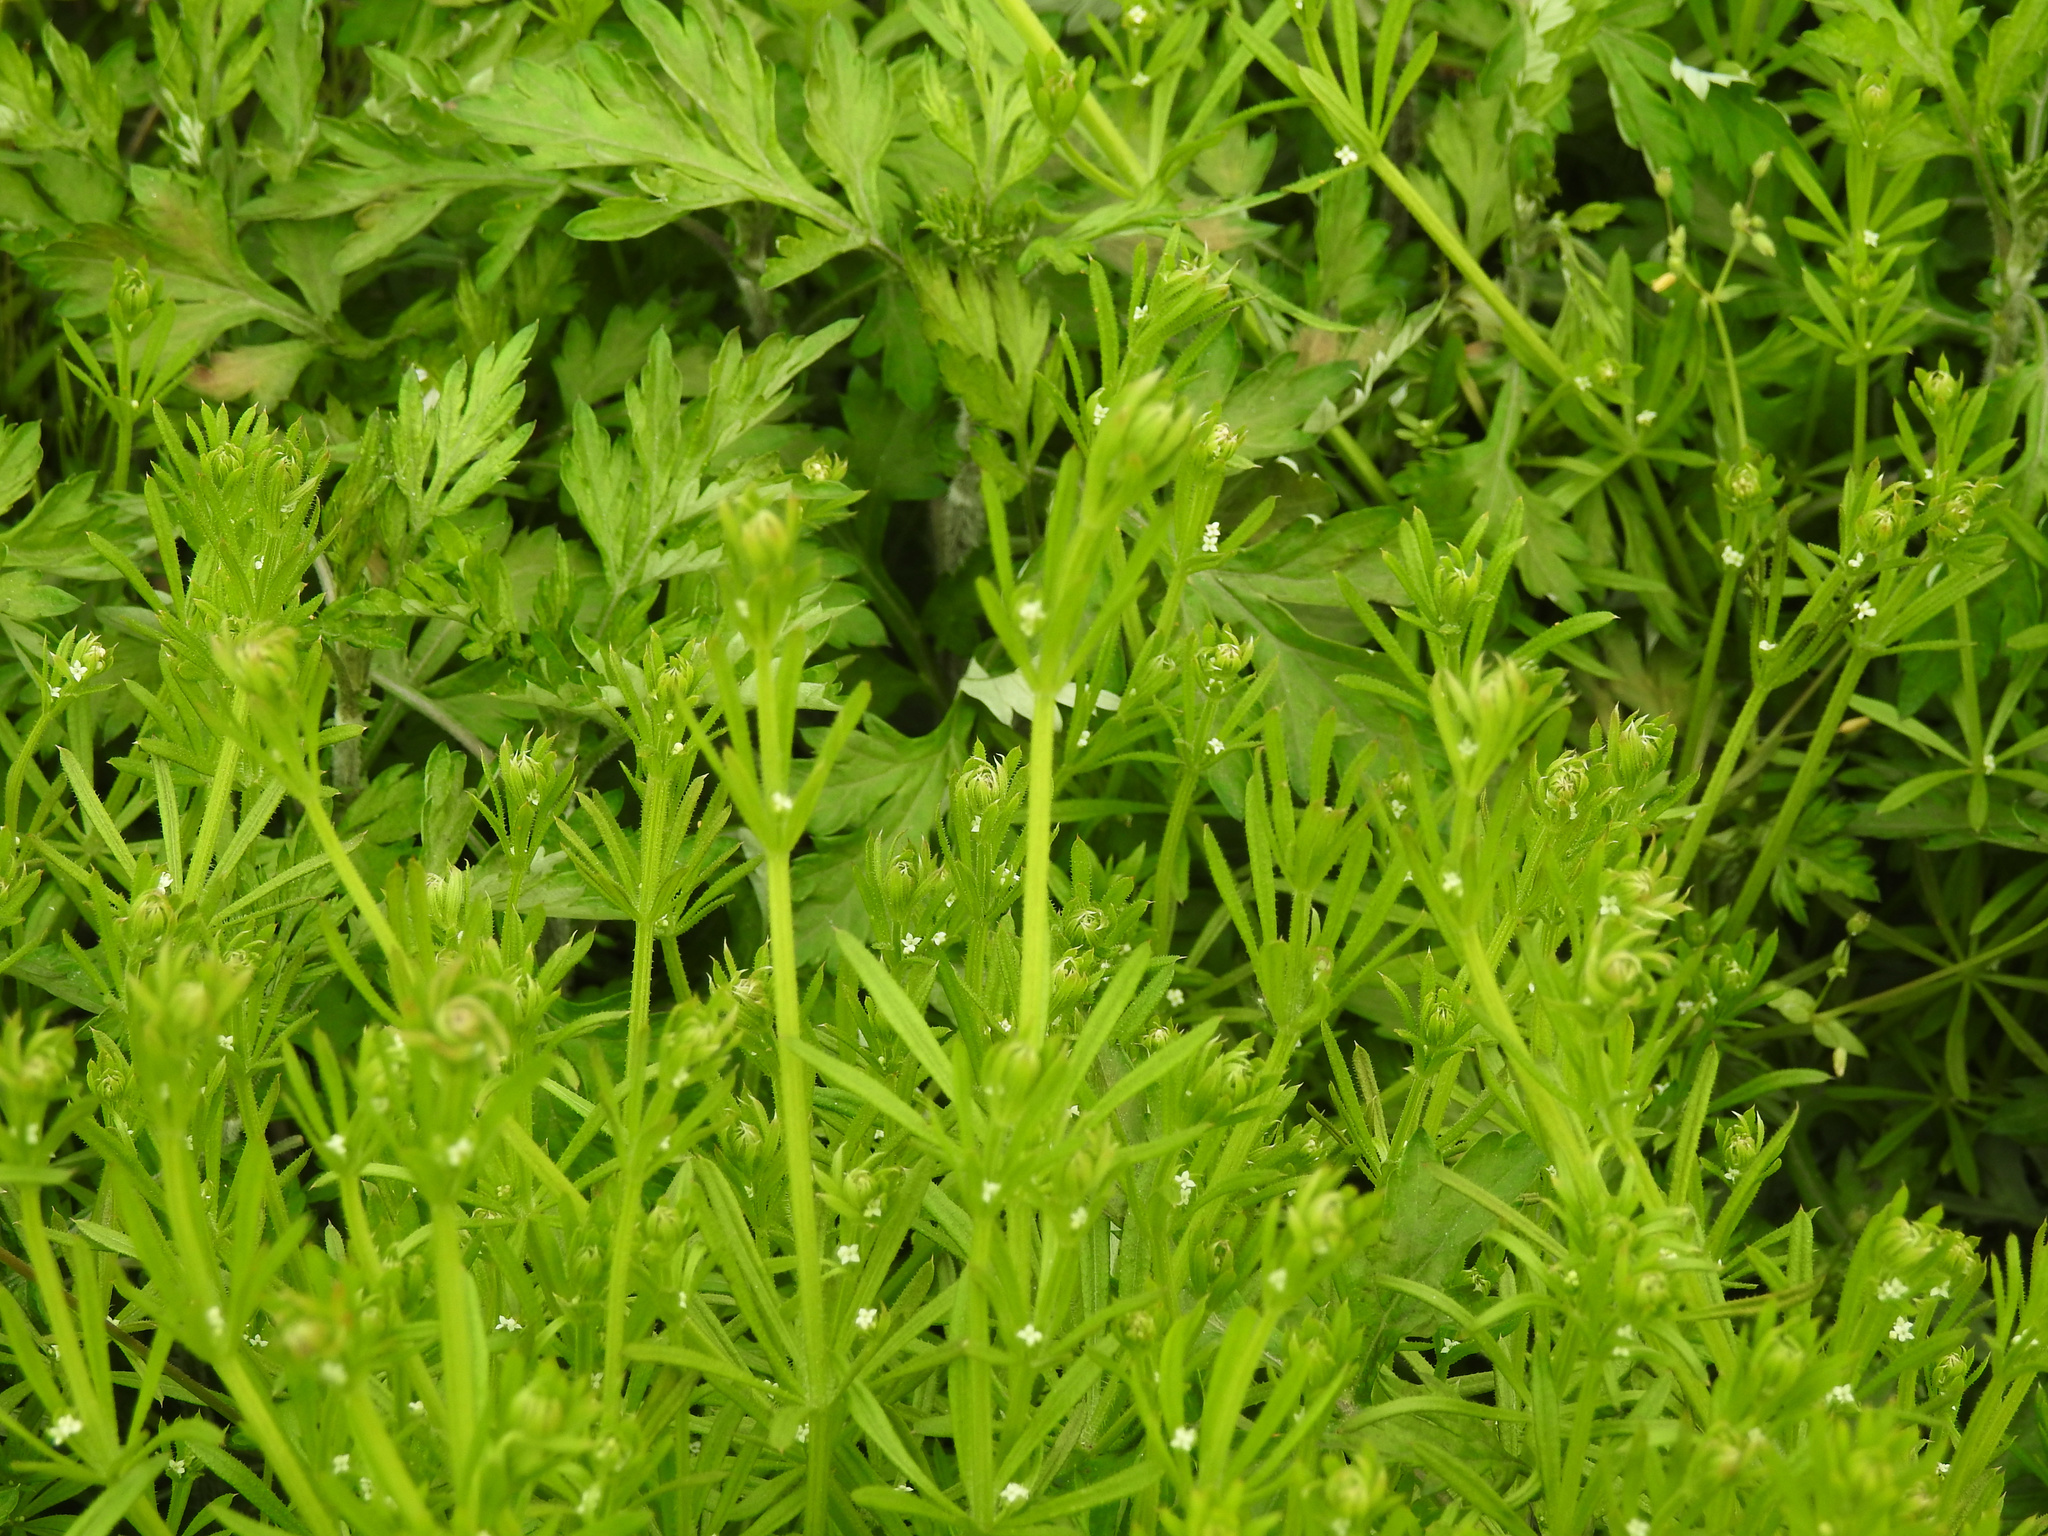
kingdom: Plantae
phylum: Tracheophyta
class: Magnoliopsida
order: Gentianales
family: Rubiaceae
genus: Galium
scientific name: Galium aparine
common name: Cleavers
